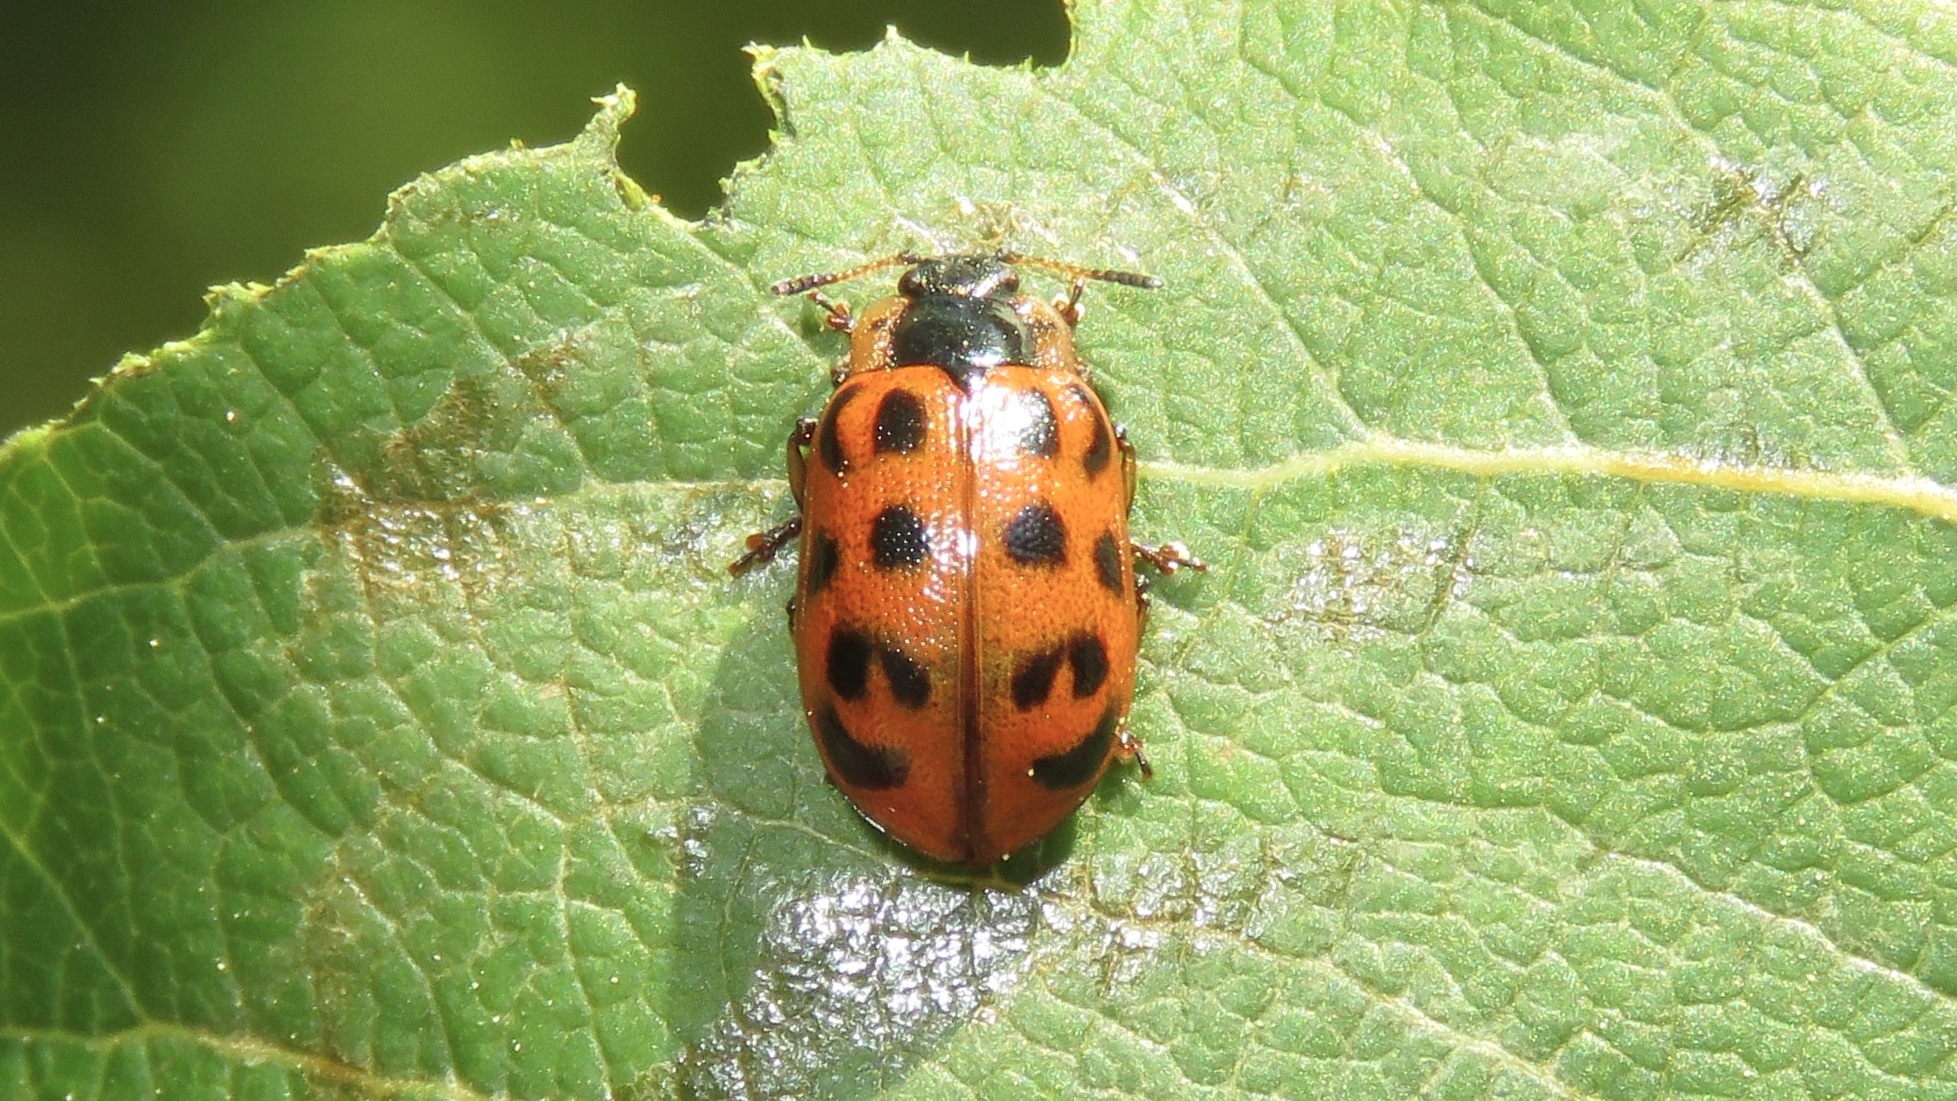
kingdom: Animalia
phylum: Arthropoda
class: Insecta
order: Coleoptera
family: Chrysomelidae
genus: Chrysomela
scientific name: Chrysomela knabi
